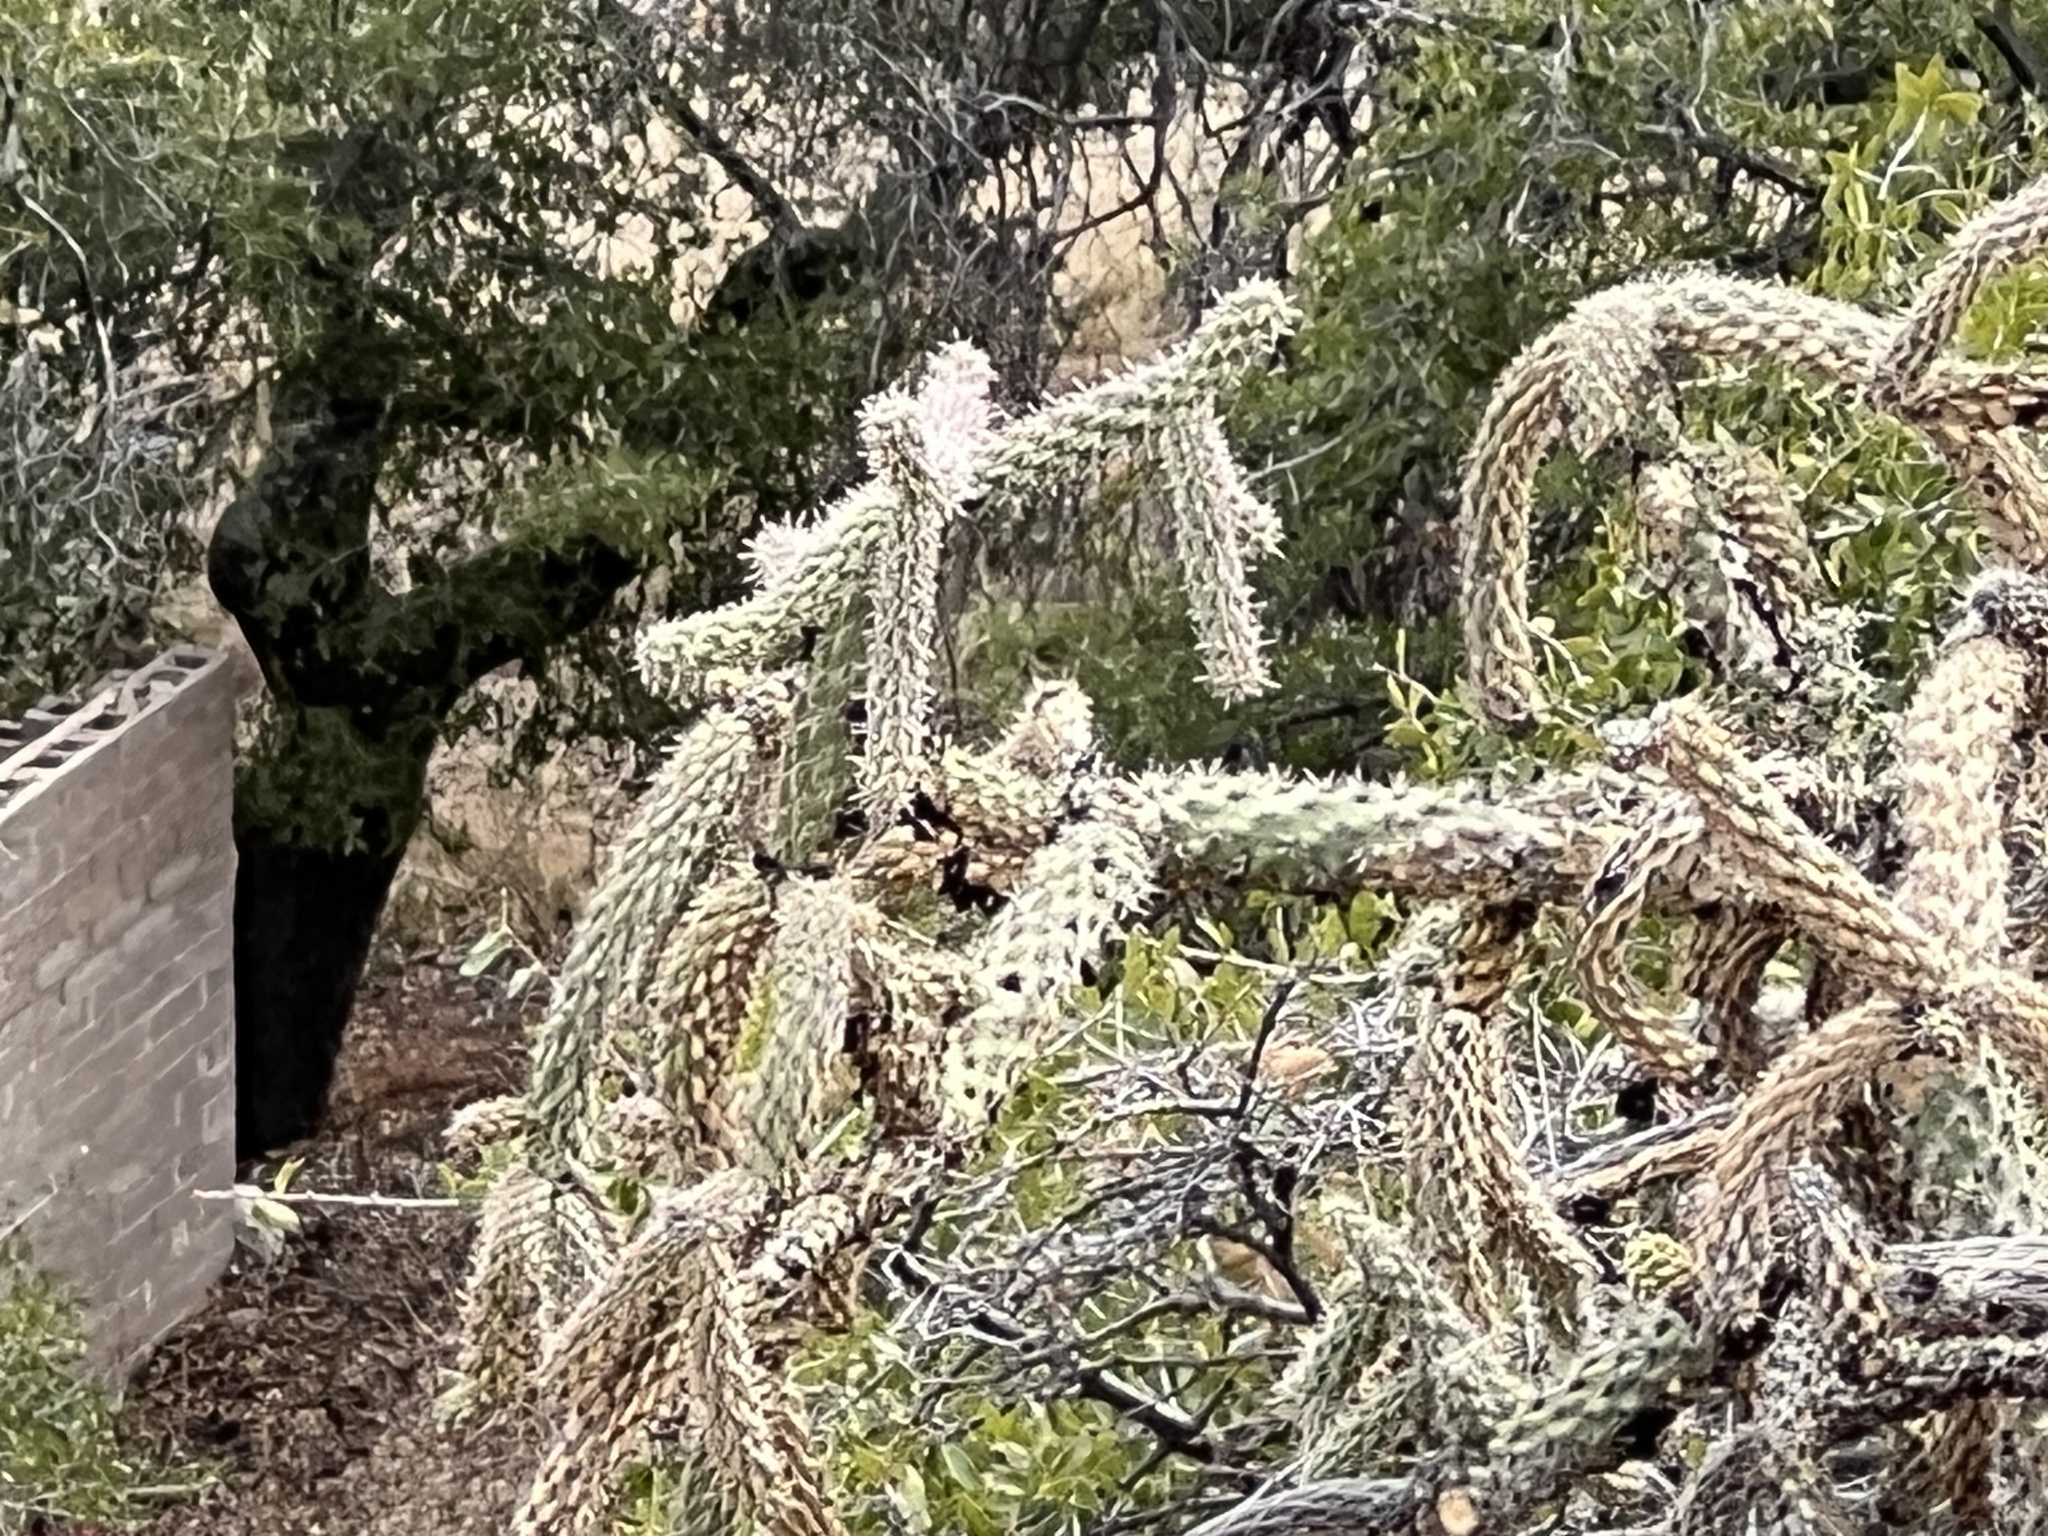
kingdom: Plantae
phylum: Tracheophyta
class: Magnoliopsida
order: Caryophyllales
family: Cactaceae
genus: Cylindropuntia
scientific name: Cylindropuntia imbricata
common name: Candelabrum cactus
